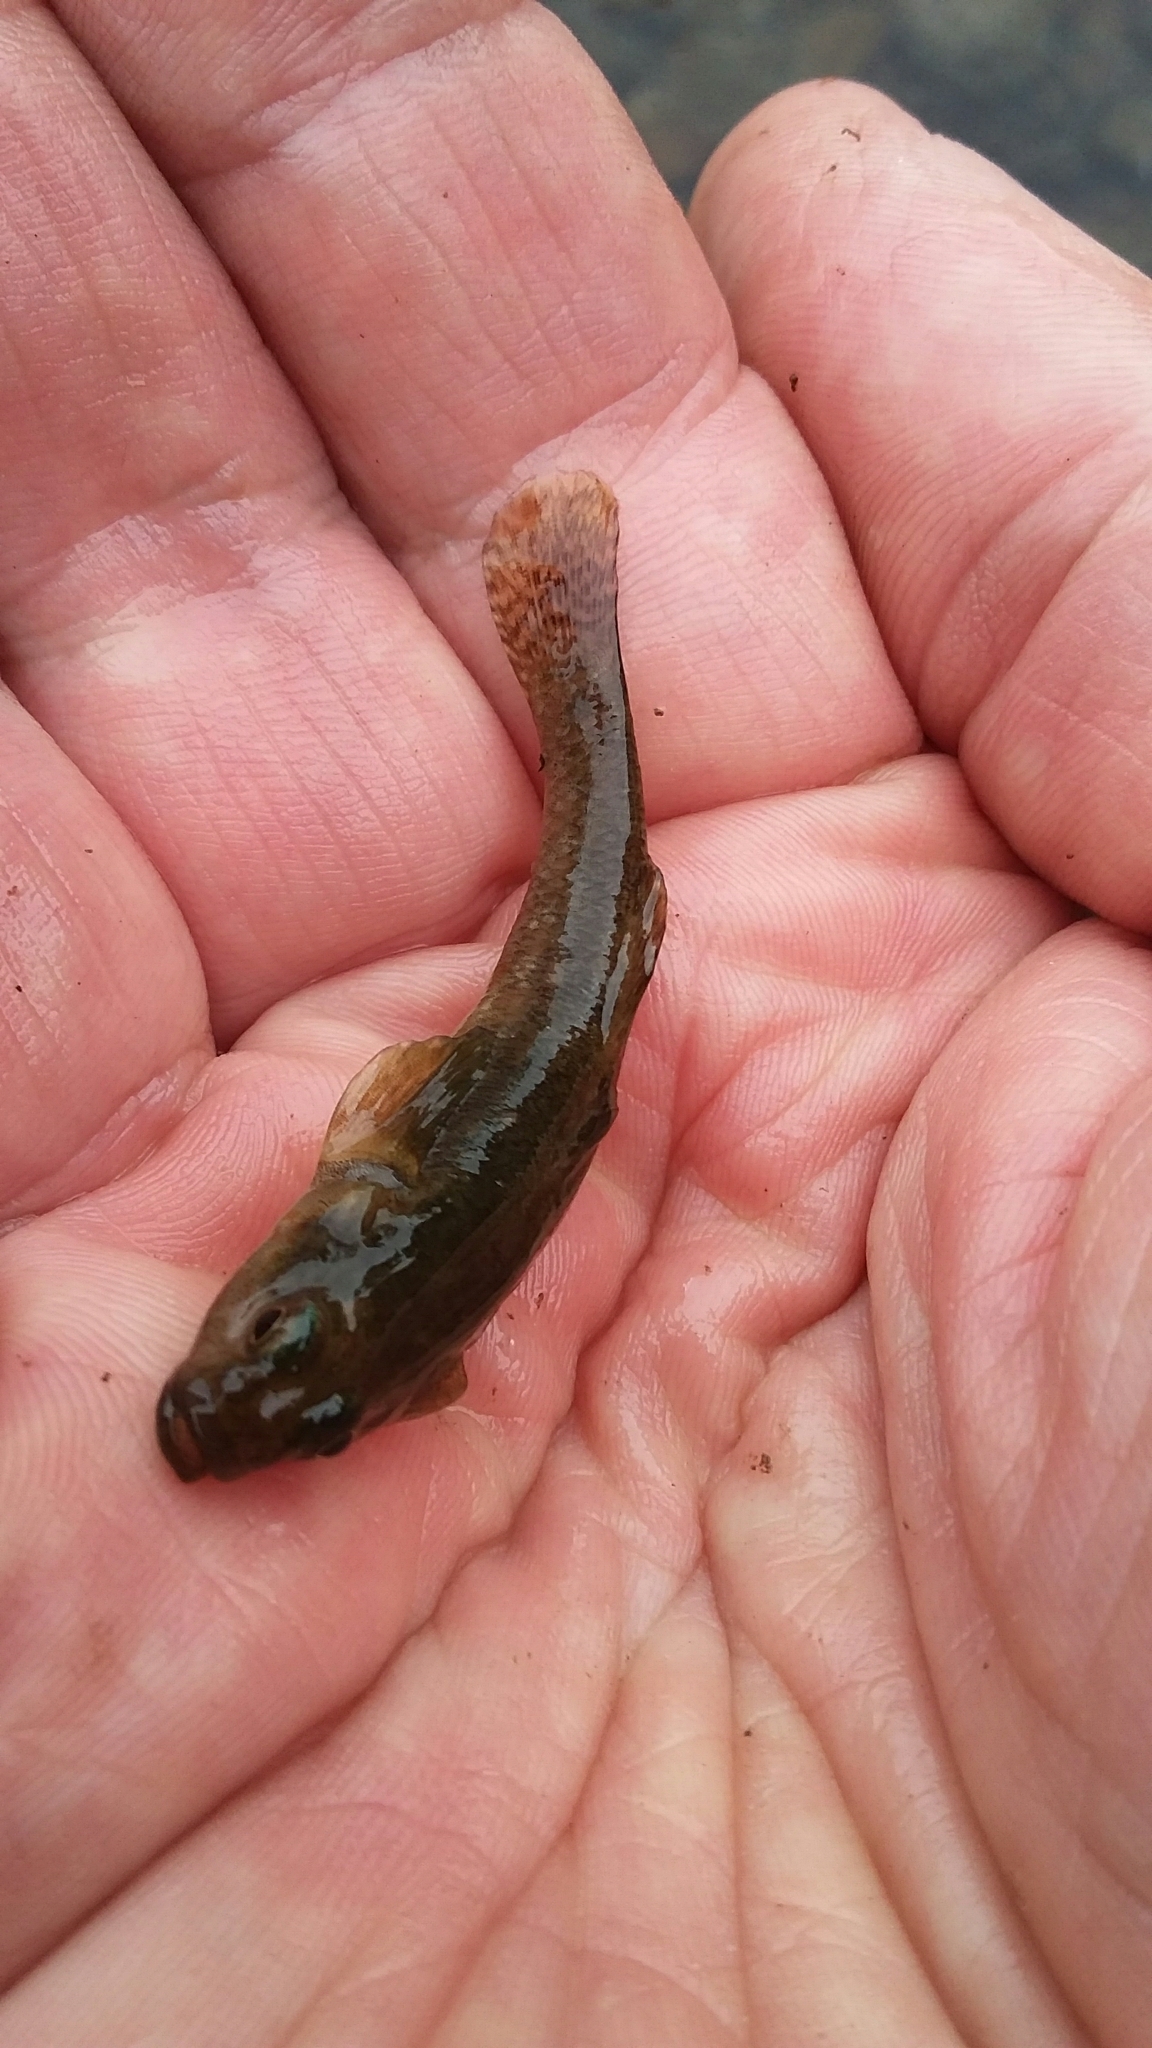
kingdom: Animalia
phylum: Chordata
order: Perciformes
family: Eleotridae
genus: Gobiomorphus
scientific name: Gobiomorphus cotidianus
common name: Common bully
